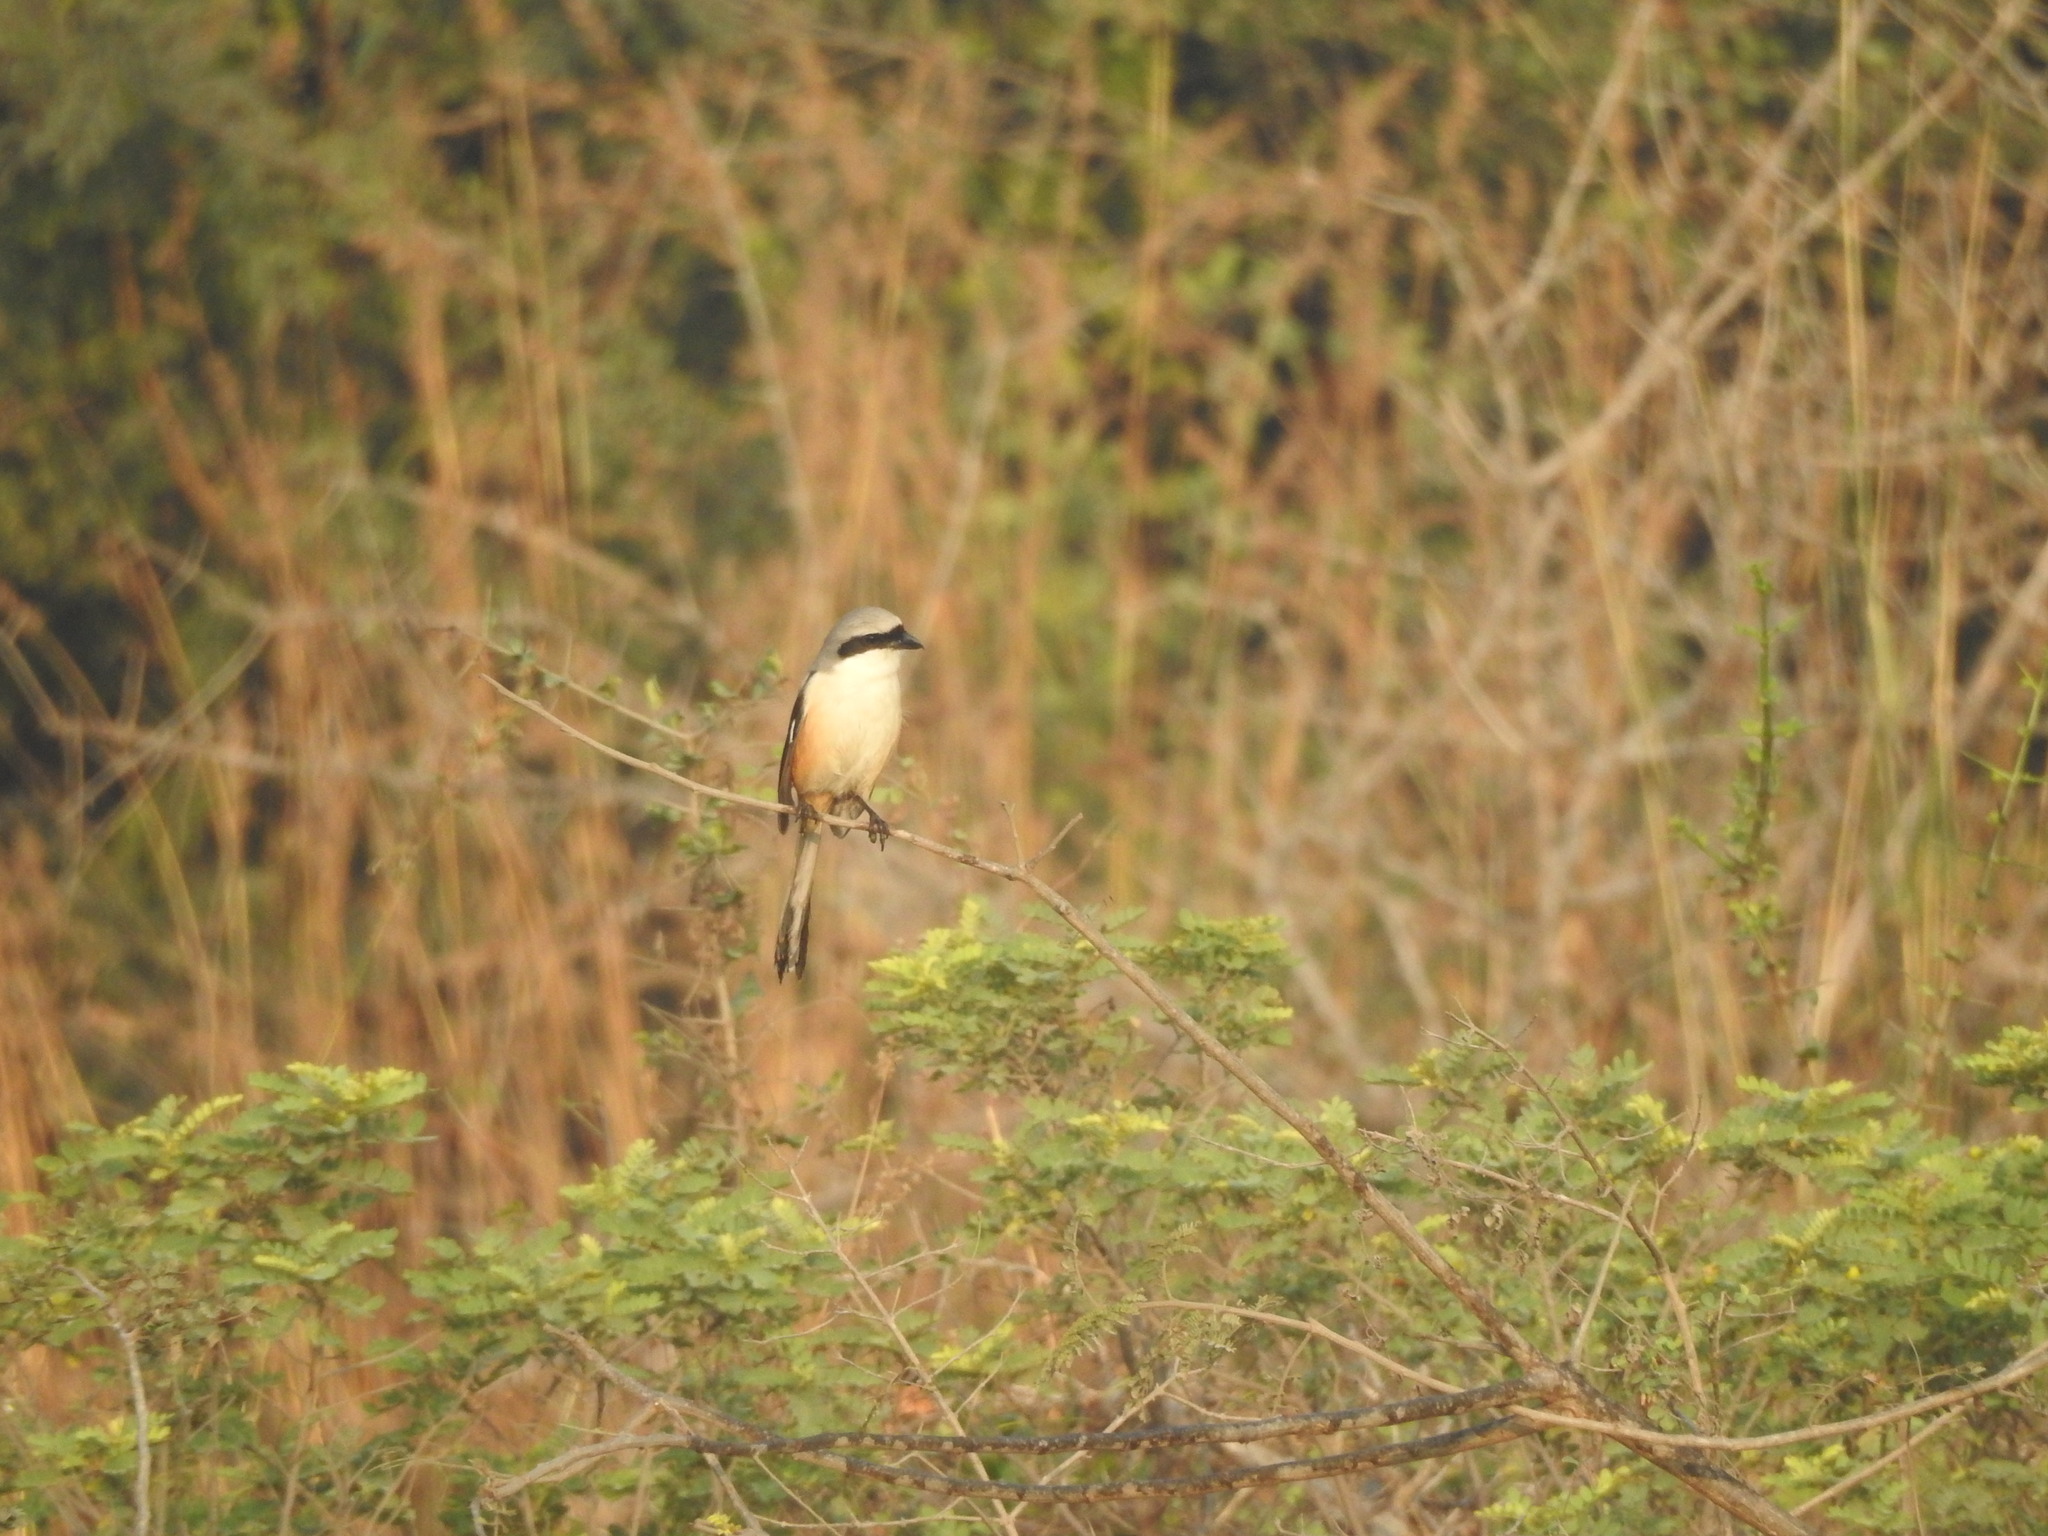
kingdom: Animalia
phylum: Chordata
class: Aves
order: Passeriformes
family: Laniidae
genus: Lanius
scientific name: Lanius schach
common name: Long-tailed shrike
